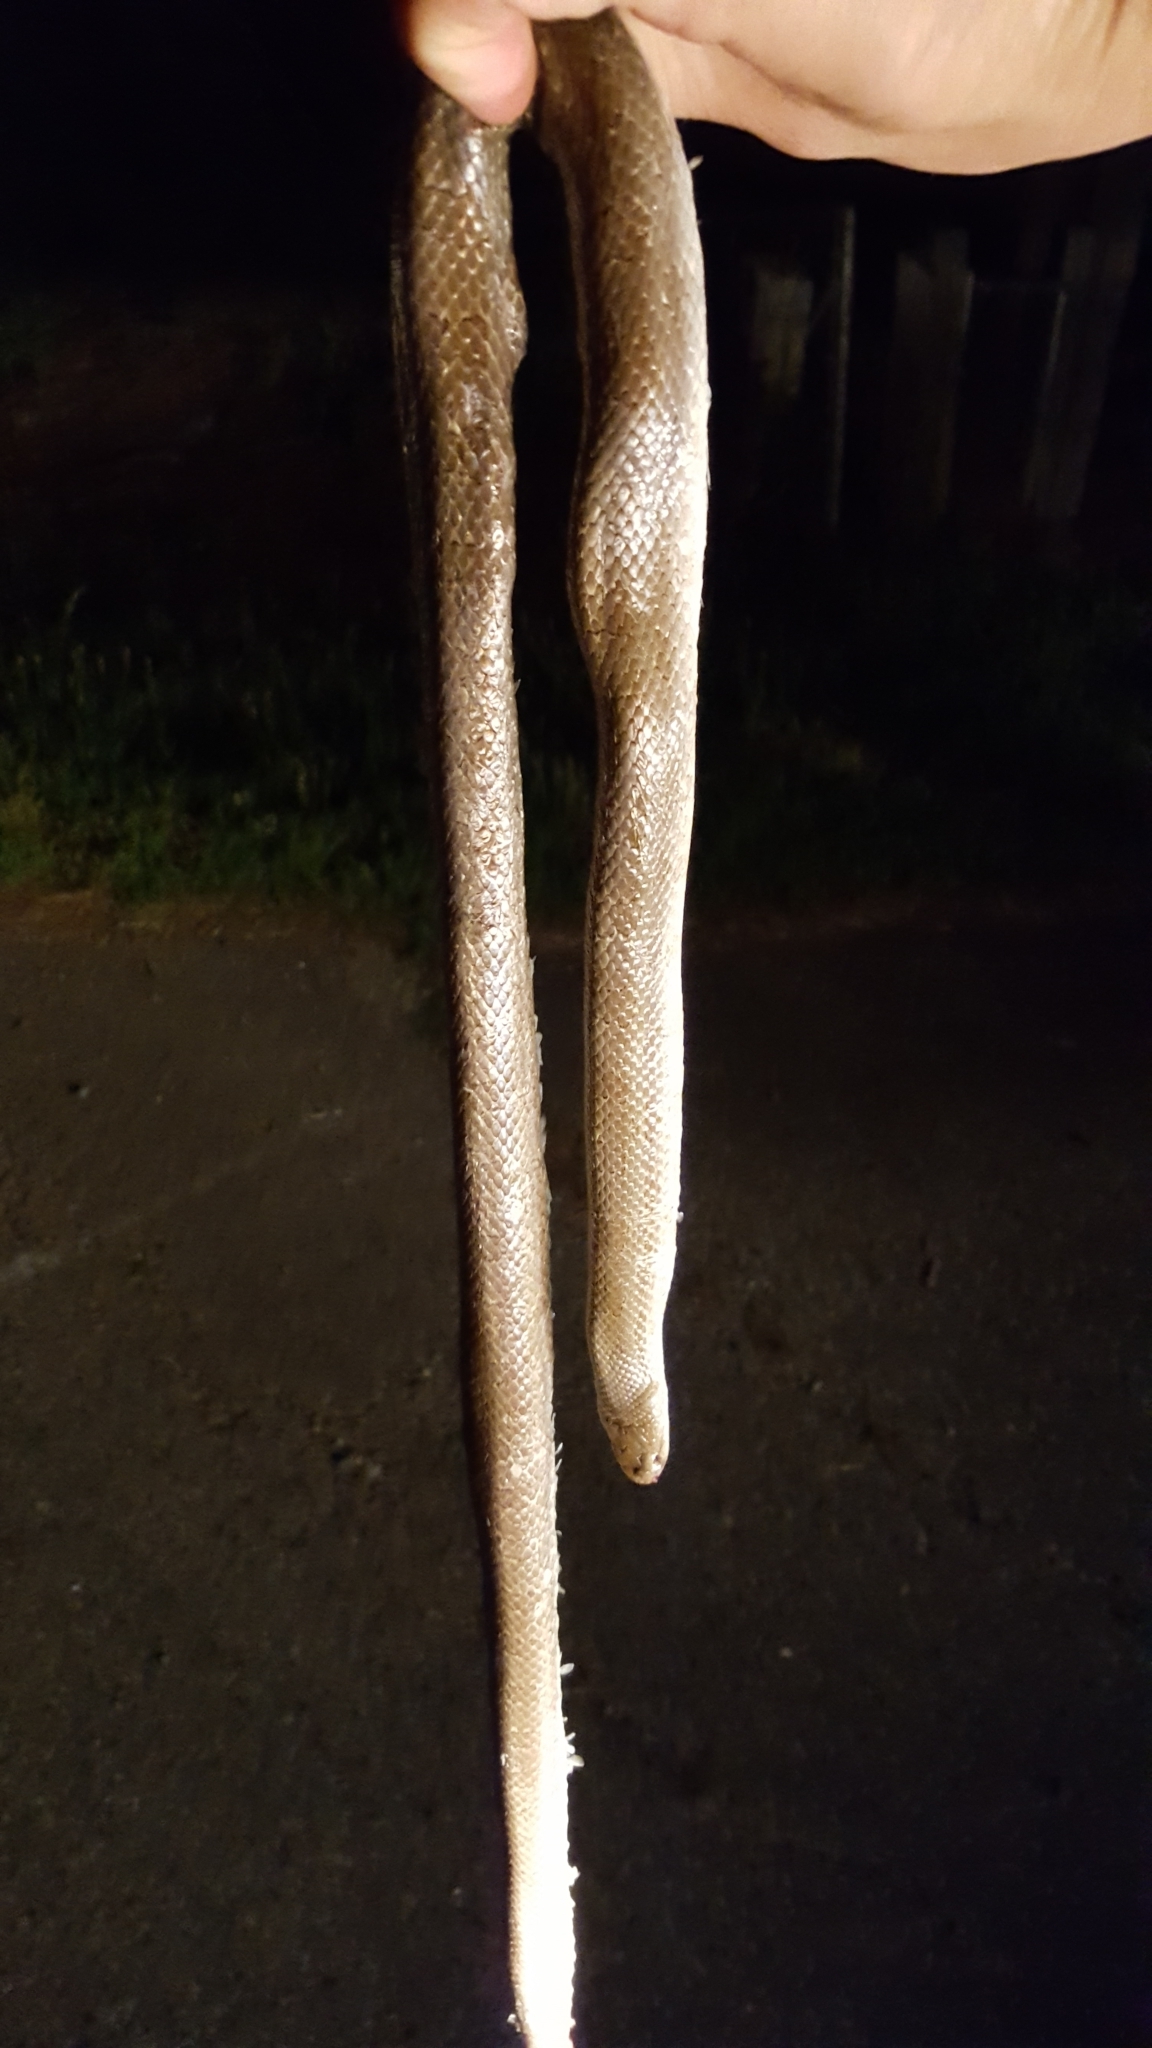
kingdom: Animalia
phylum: Chordata
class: Squamata
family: Colubridae
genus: Lampropeltis
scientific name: Lampropeltis calligaster
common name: Prairie kingsnake
